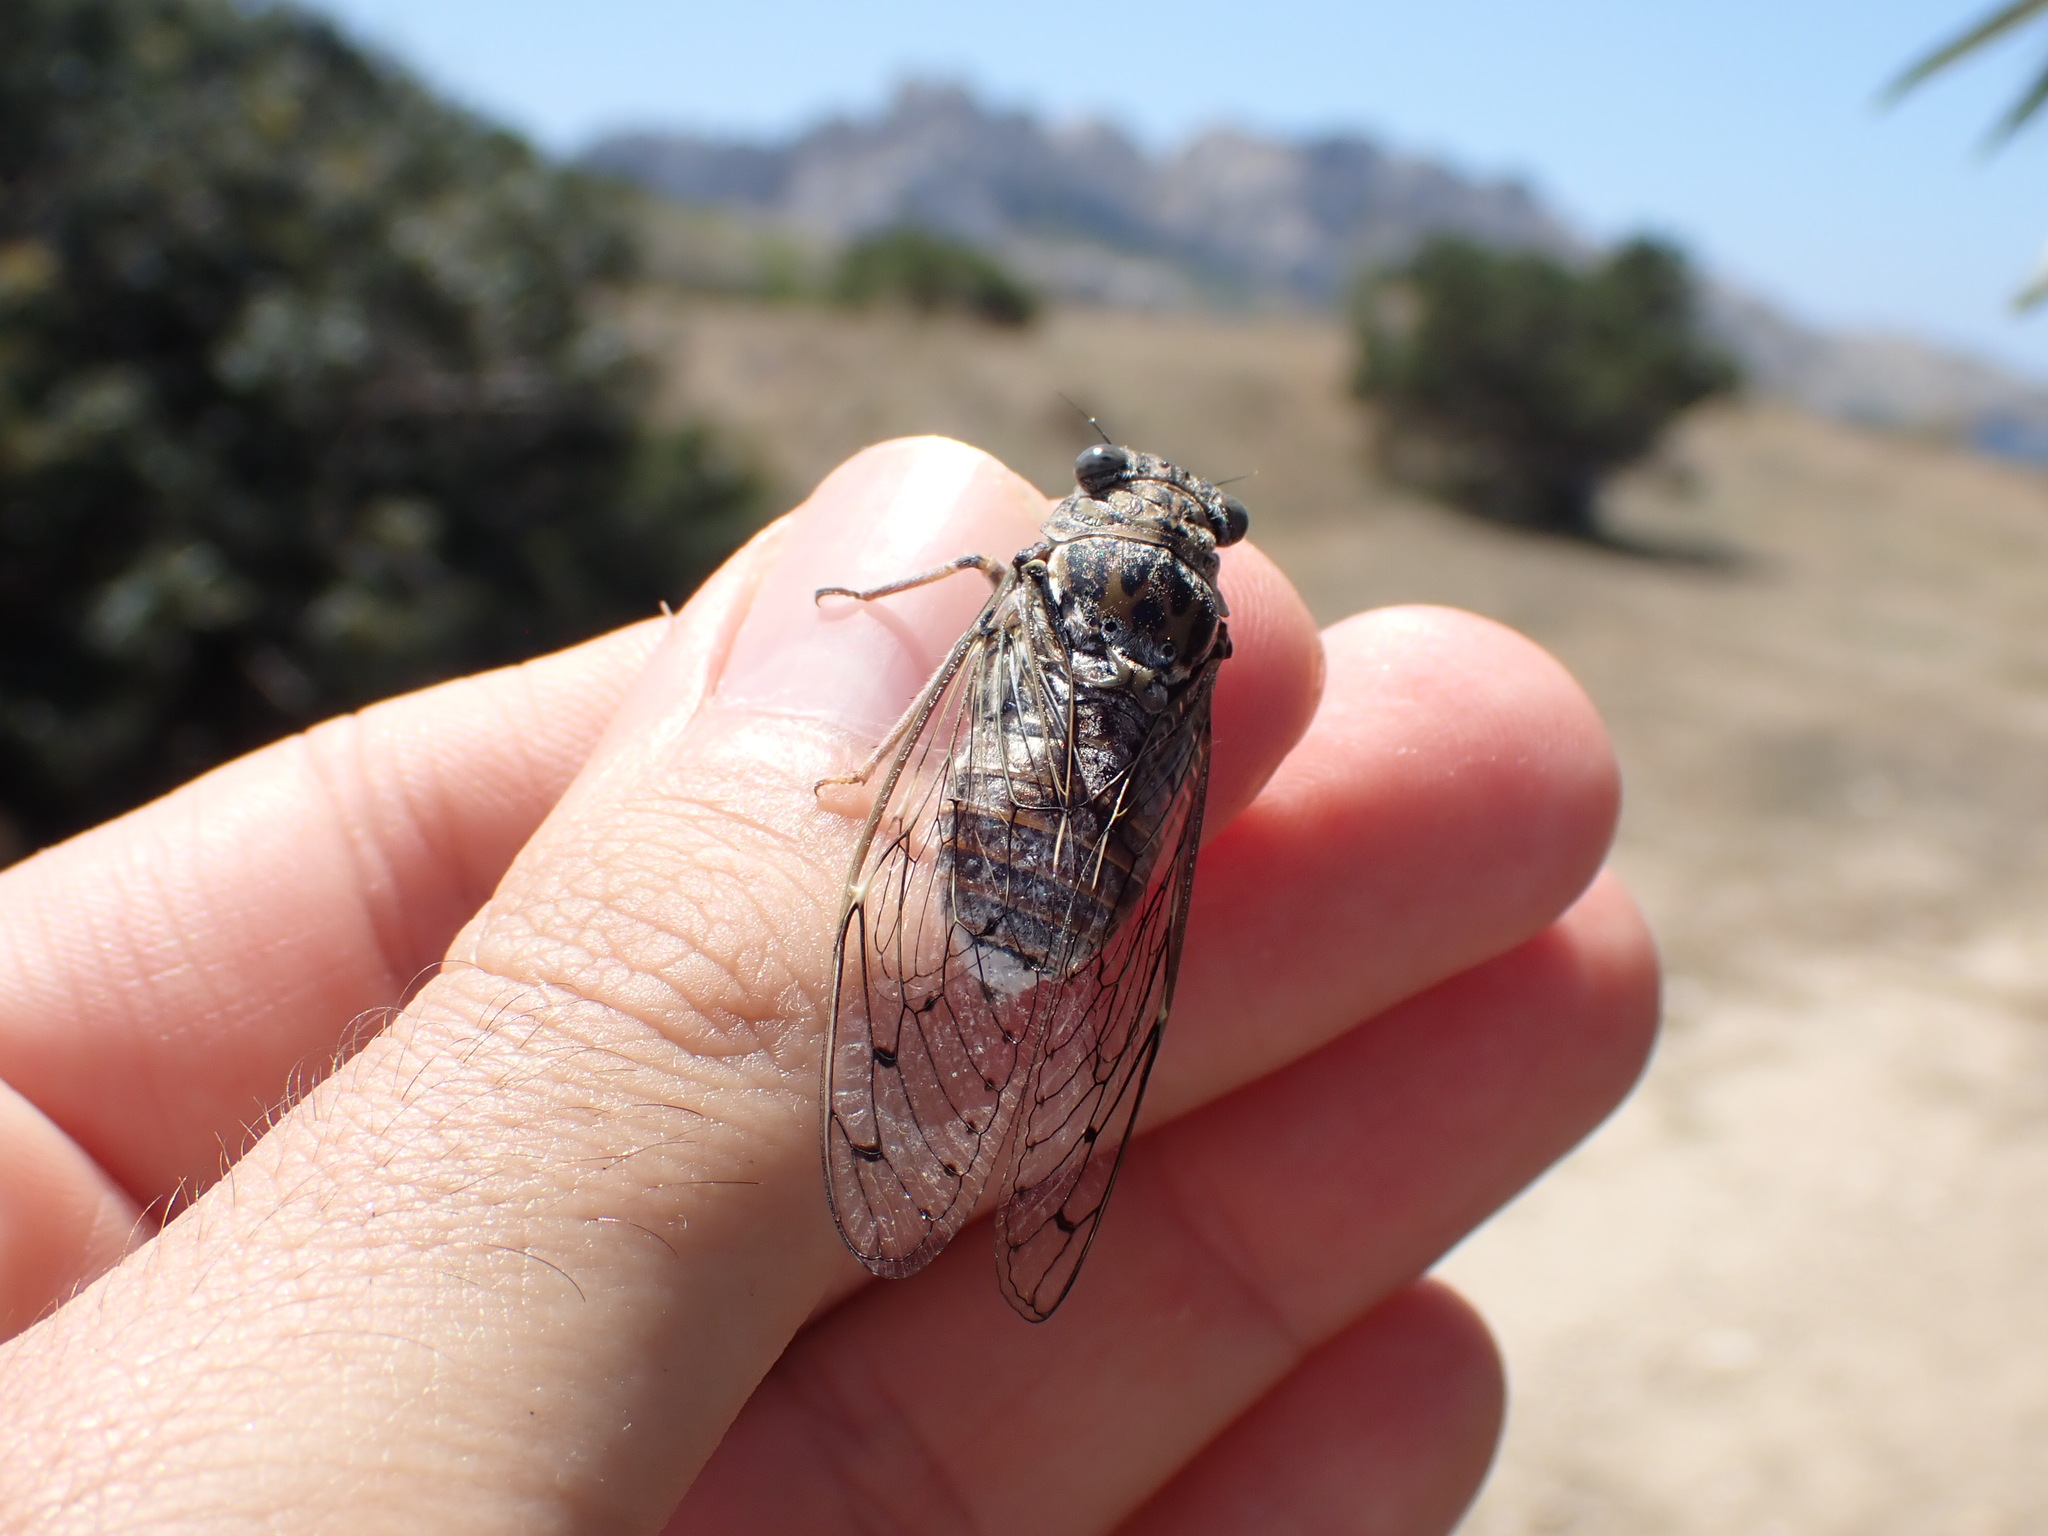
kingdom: Animalia
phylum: Arthropoda
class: Insecta
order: Hemiptera
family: Cicadidae
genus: Cicada
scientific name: Cicada orni
